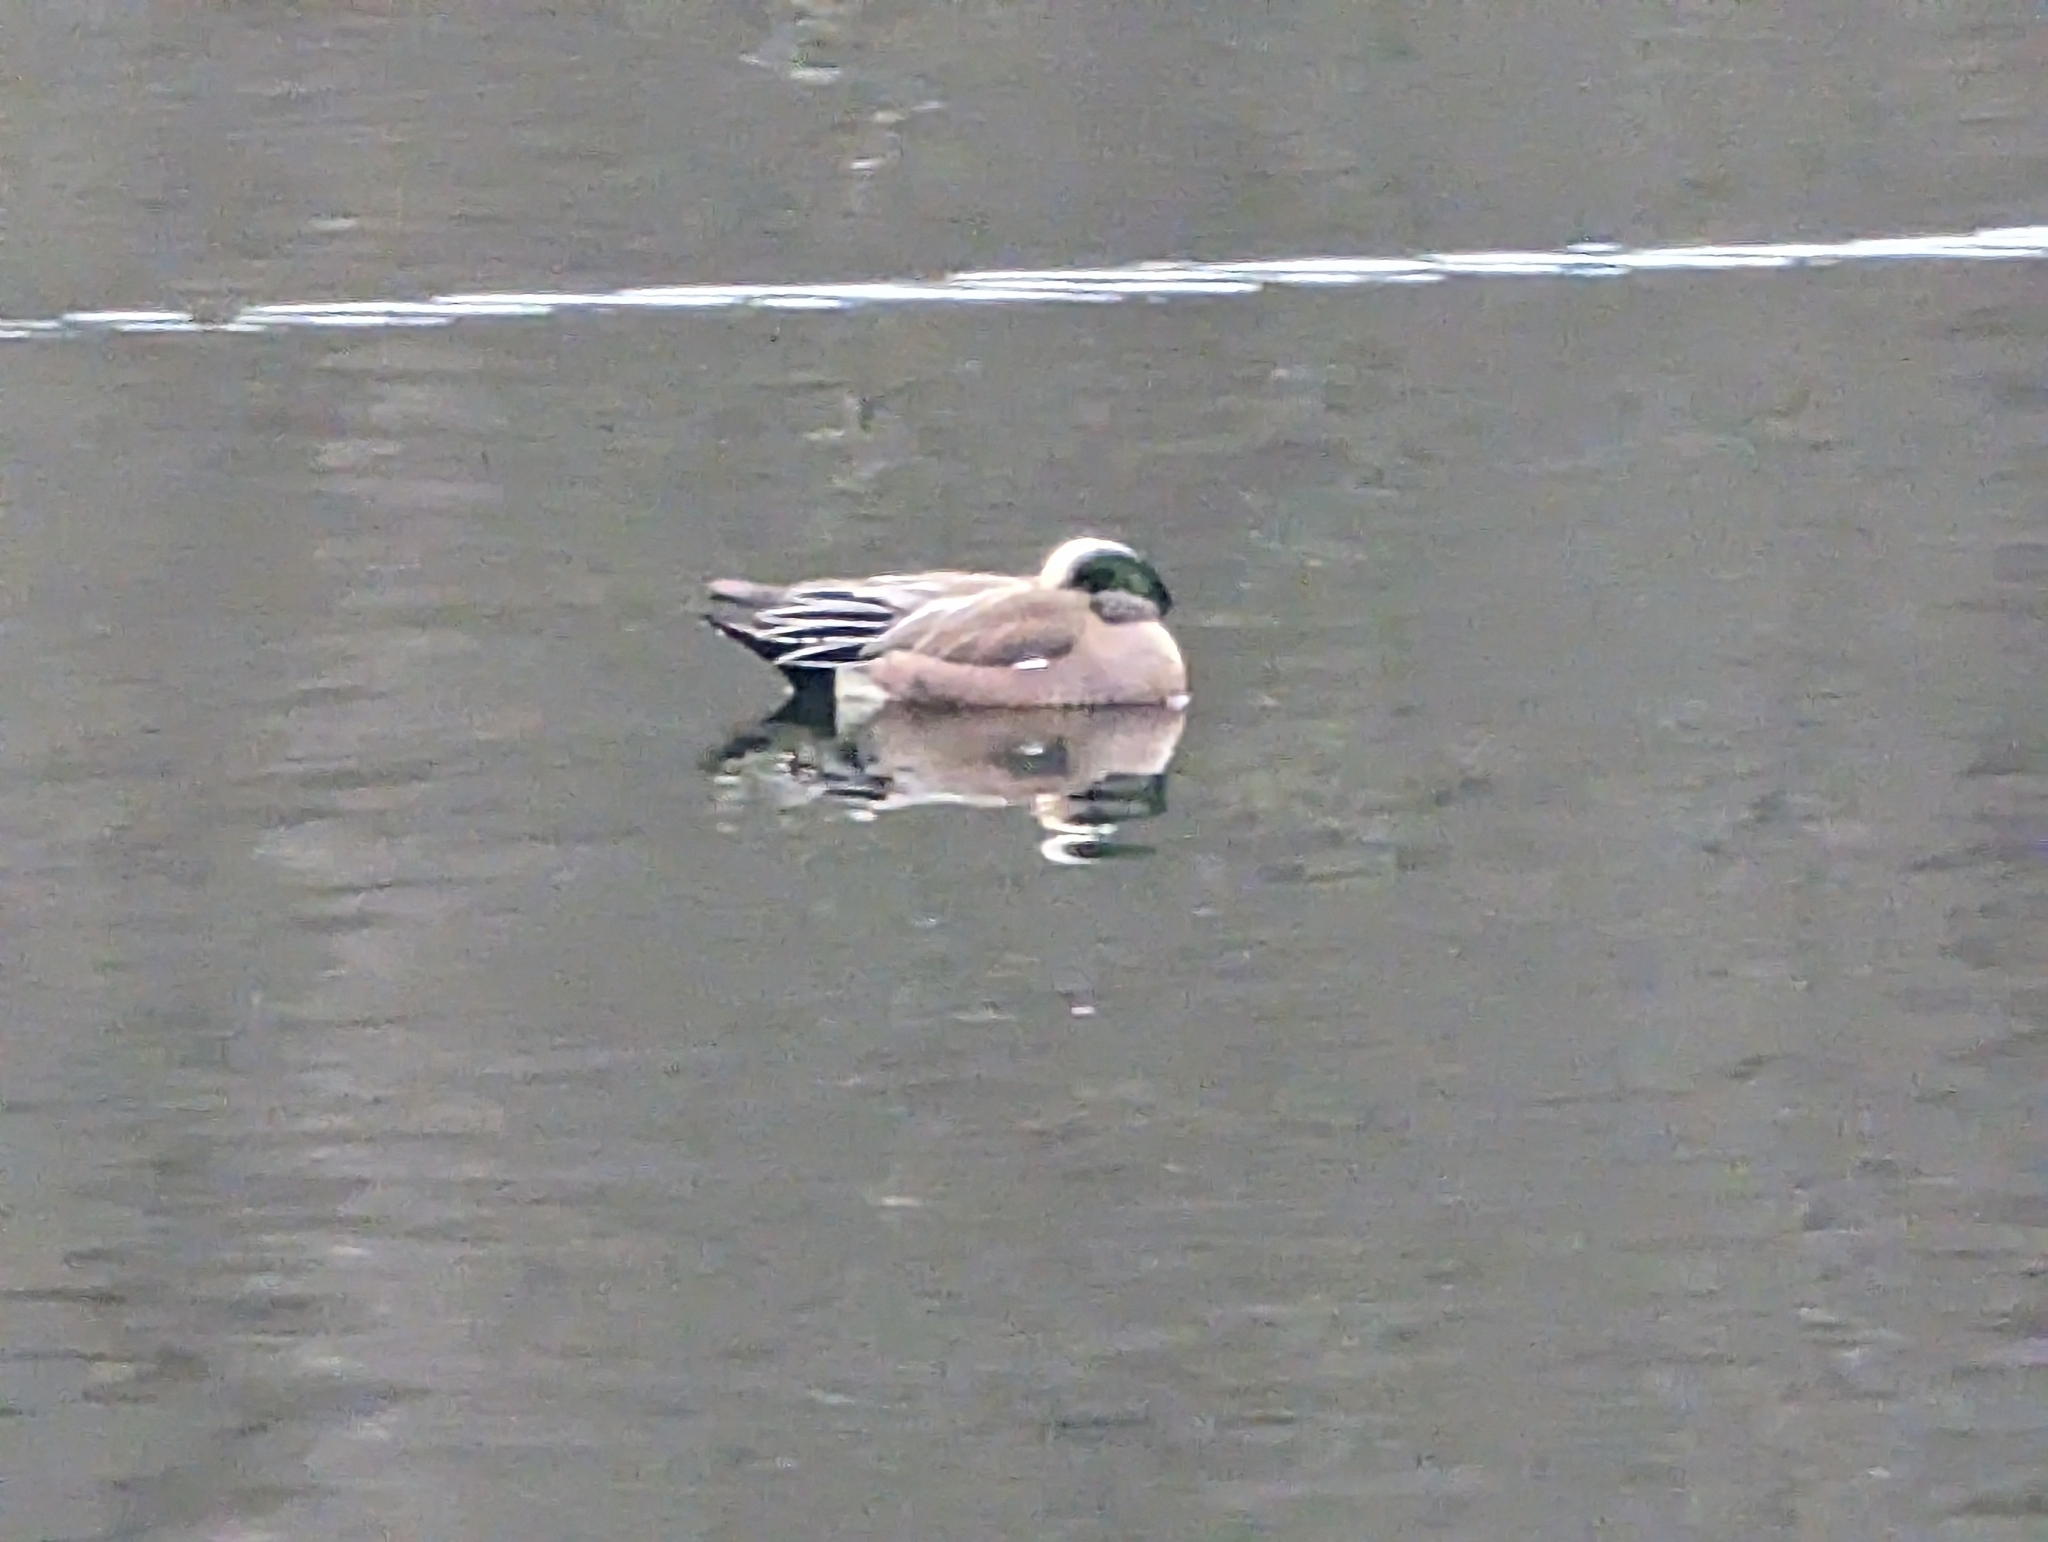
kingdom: Animalia
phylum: Chordata
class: Aves
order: Anseriformes
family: Anatidae
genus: Mareca
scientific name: Mareca americana
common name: American wigeon
